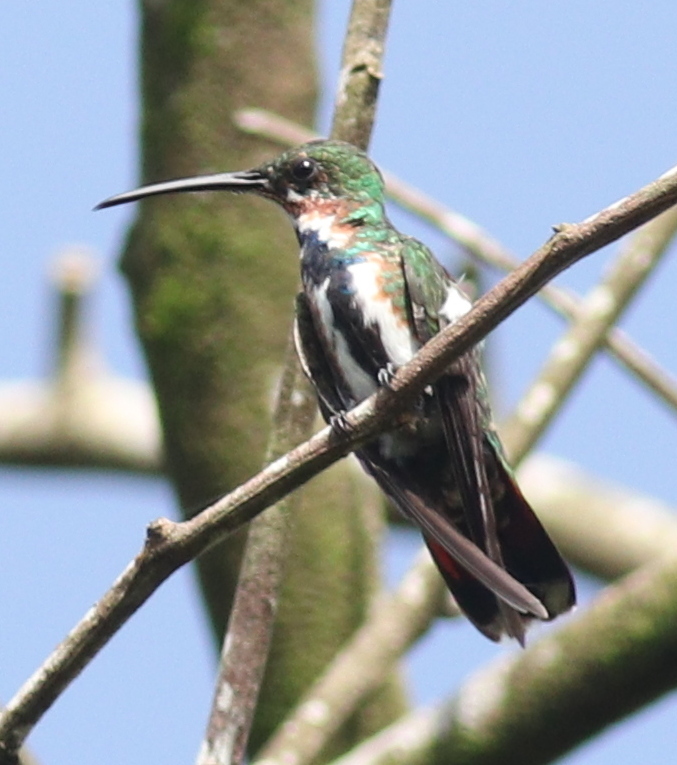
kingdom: Animalia
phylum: Chordata
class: Aves
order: Apodiformes
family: Trochilidae
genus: Anthracothorax
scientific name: Anthracothorax prevostii
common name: Green-breasted mango
